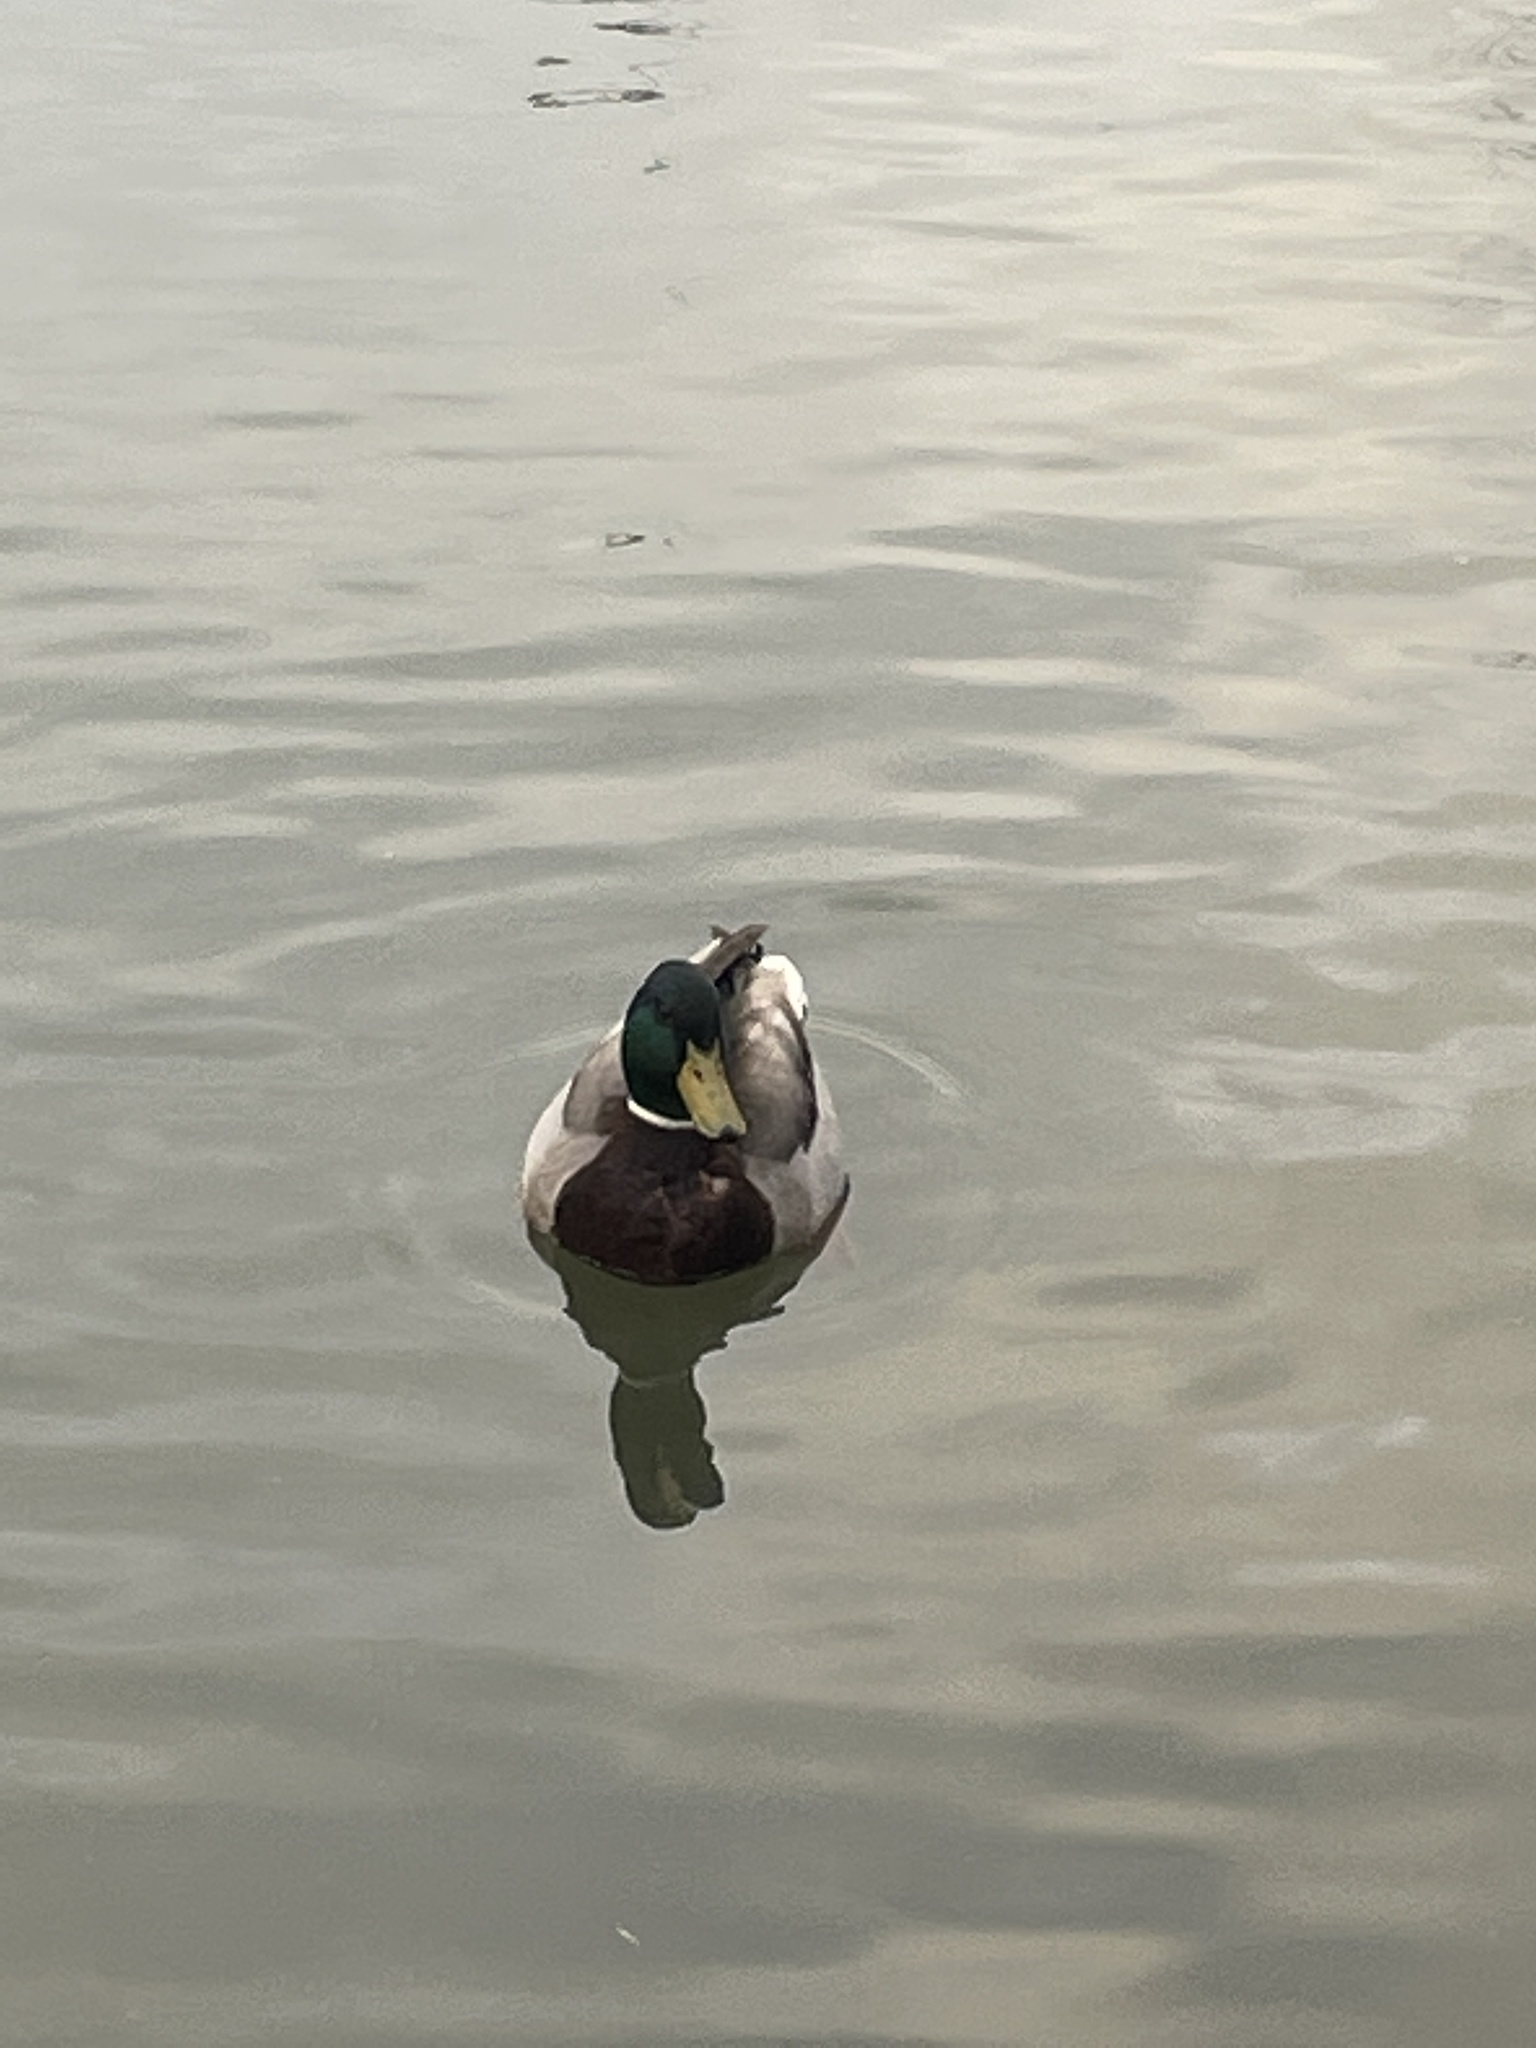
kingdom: Animalia
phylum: Chordata
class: Aves
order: Anseriformes
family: Anatidae
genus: Anas
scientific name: Anas platyrhynchos
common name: Mallard
